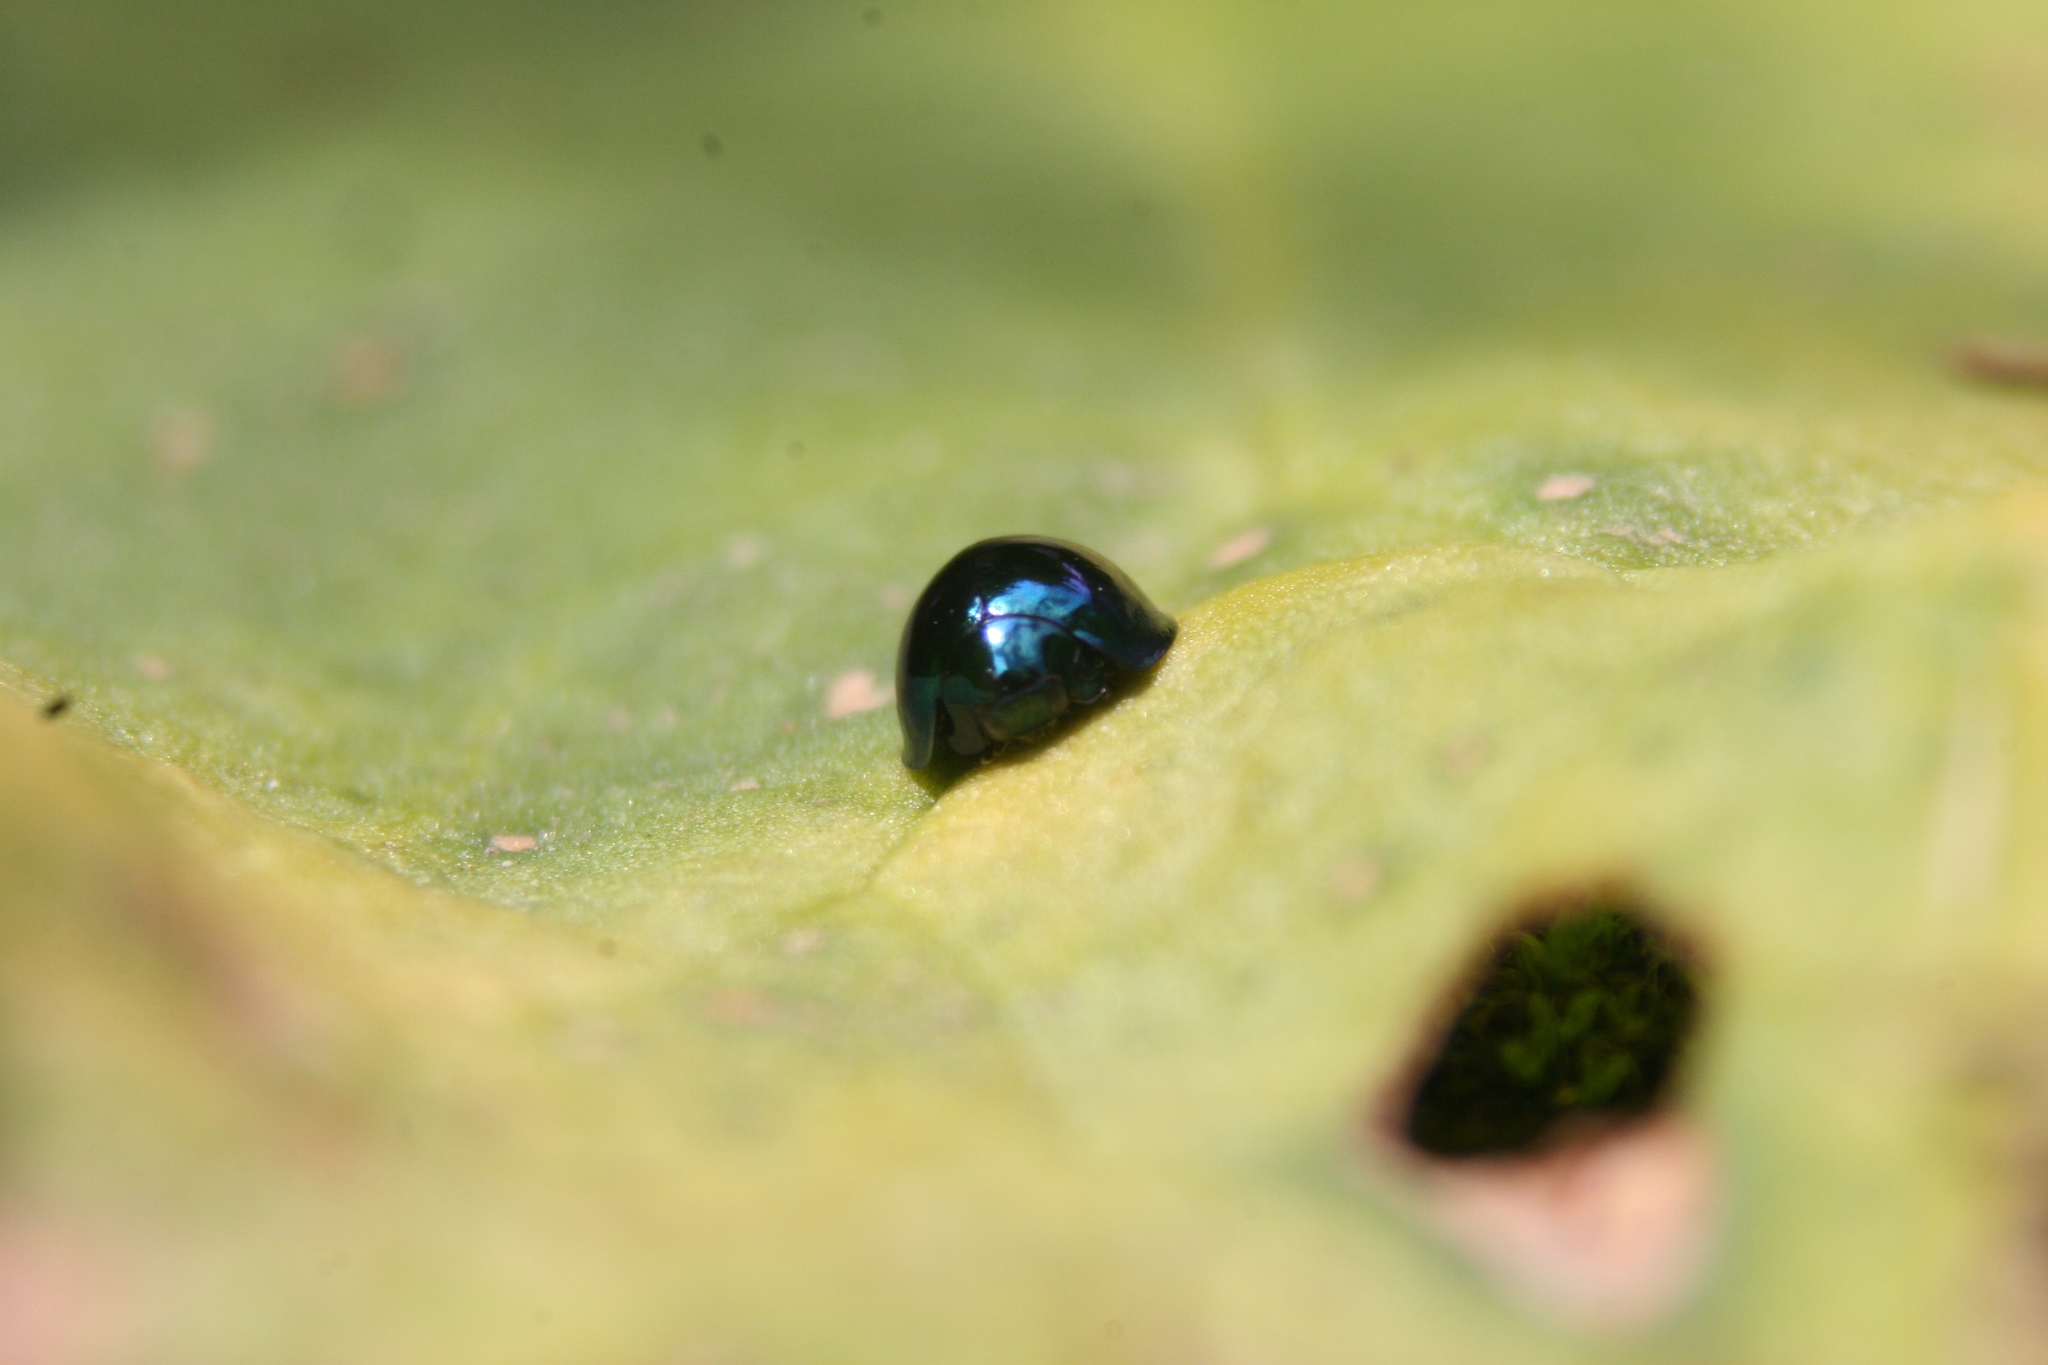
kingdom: Animalia
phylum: Arthropoda
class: Insecta
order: Coleoptera
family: Coccinellidae
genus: Halmus
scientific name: Halmus chalybeus
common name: Steel blue ladybird beetle
